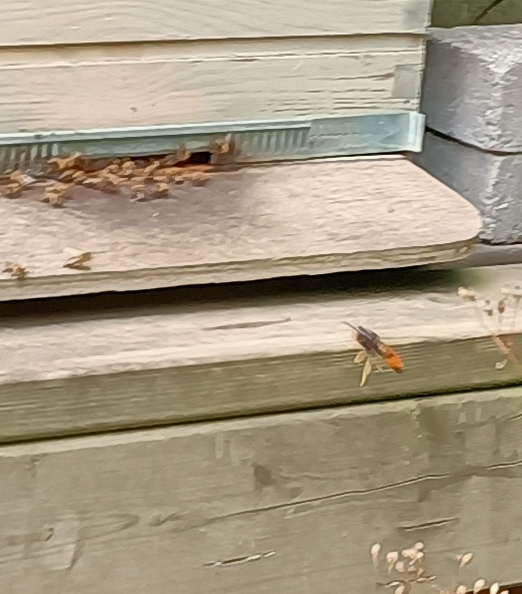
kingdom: Animalia
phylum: Arthropoda
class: Insecta
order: Hymenoptera
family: Vespidae
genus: Vespa
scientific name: Vespa velutina
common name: Asian hornet
